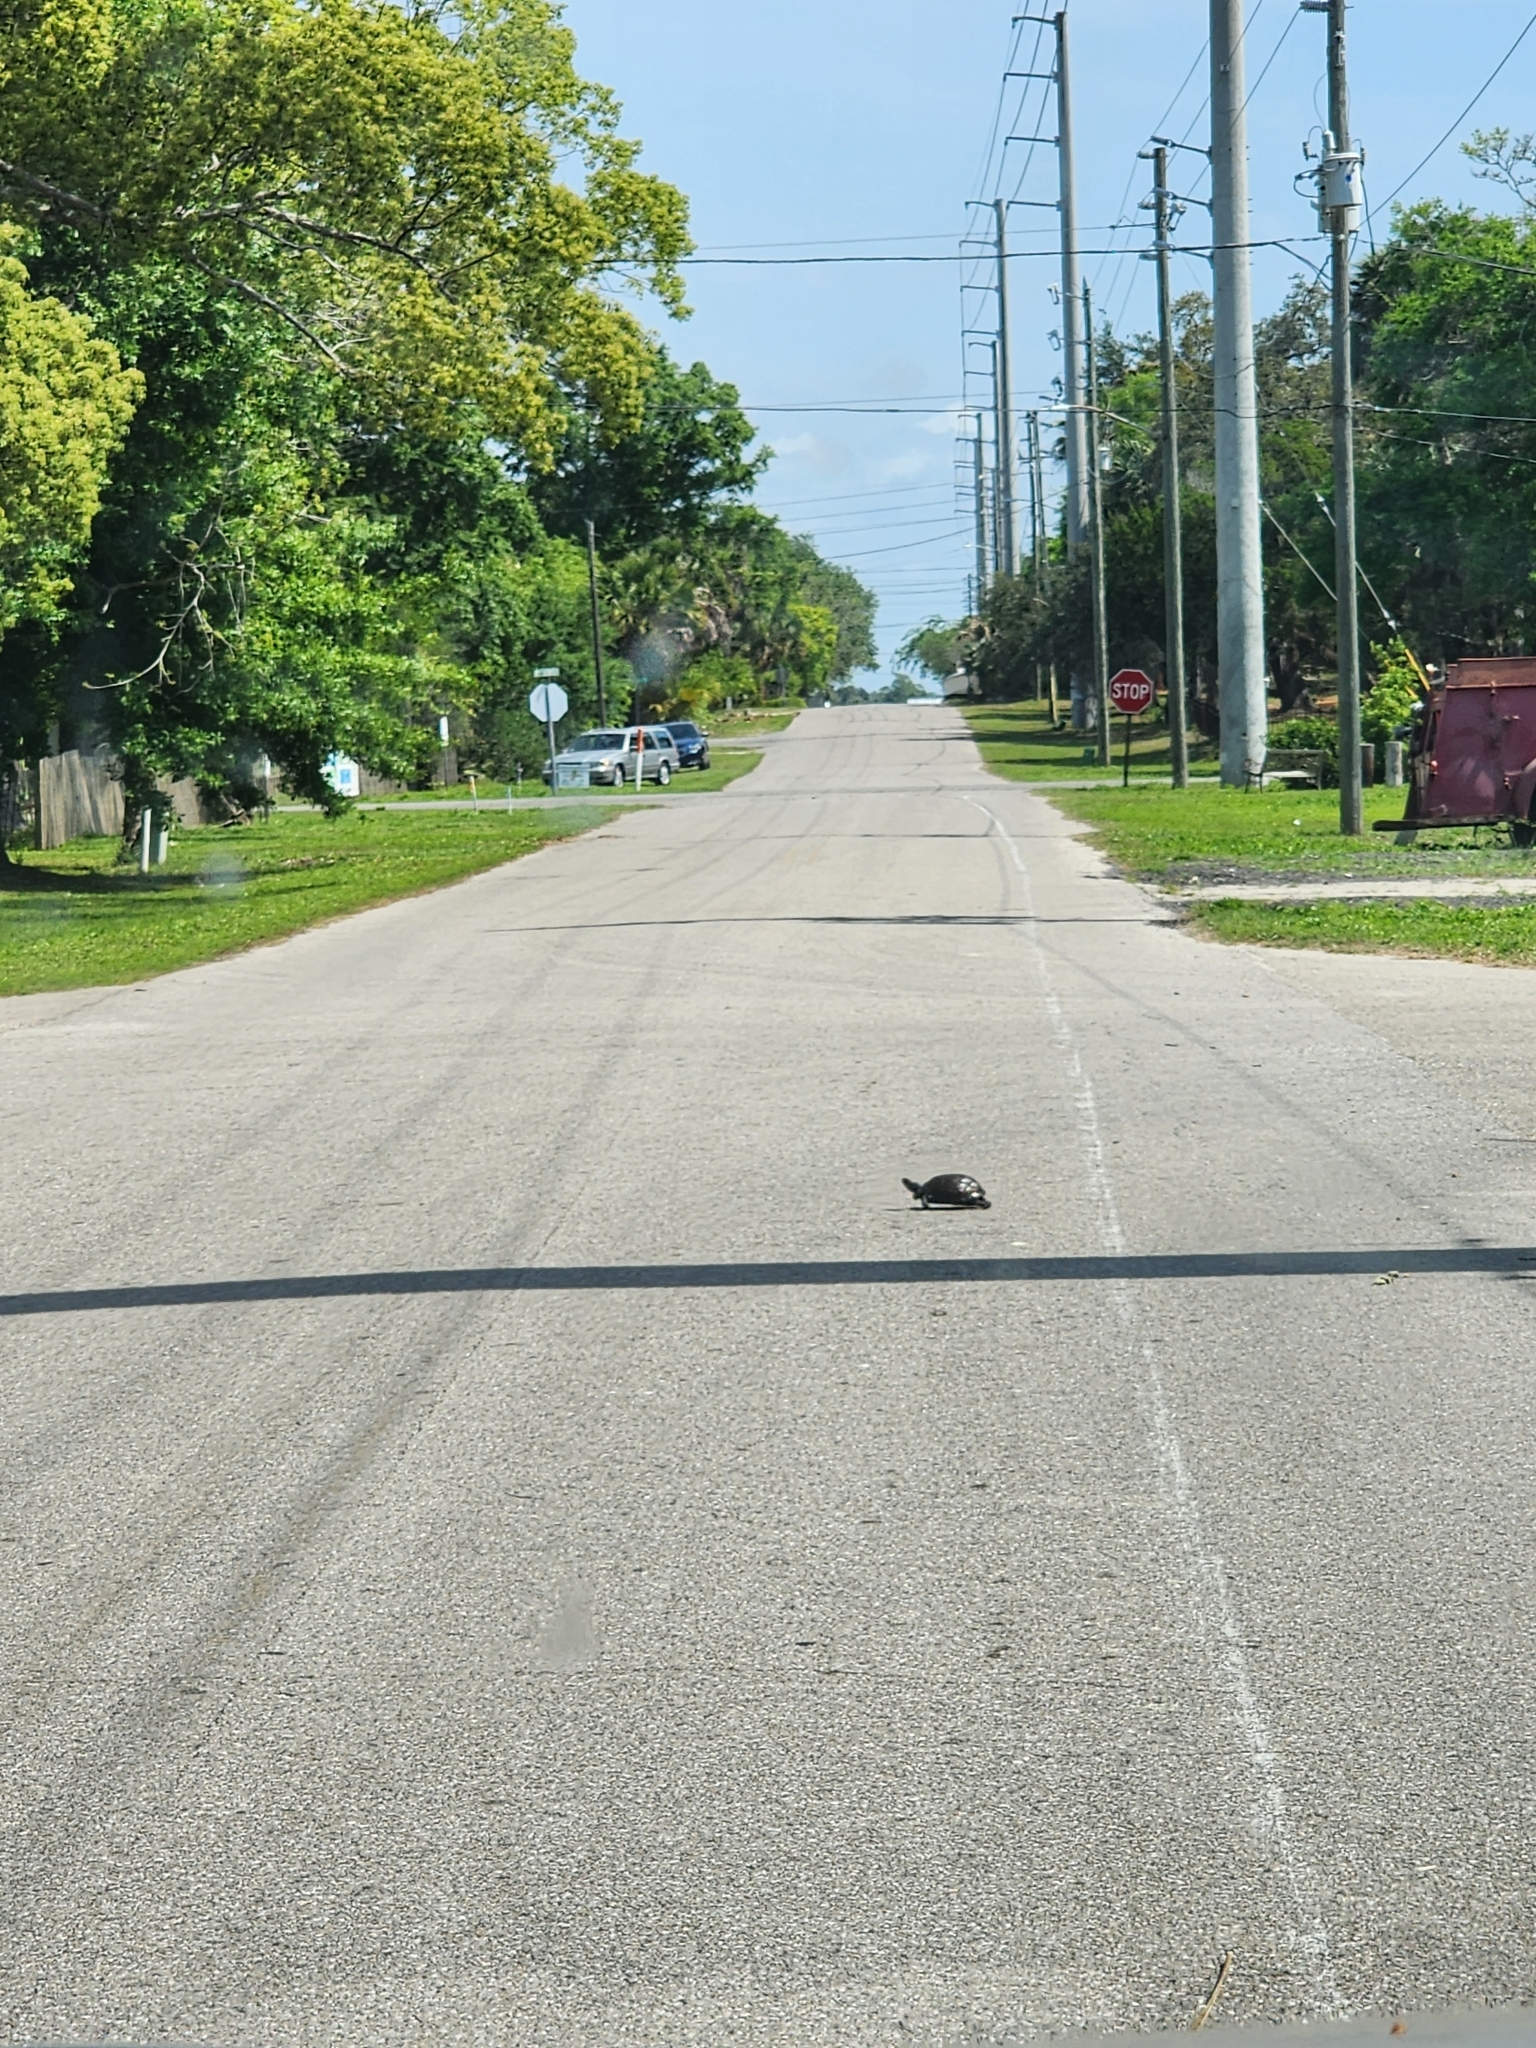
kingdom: Animalia
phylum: Chordata
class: Testudines
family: Emydidae
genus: Terrapene
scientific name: Terrapene carolina
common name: Common box turtle
